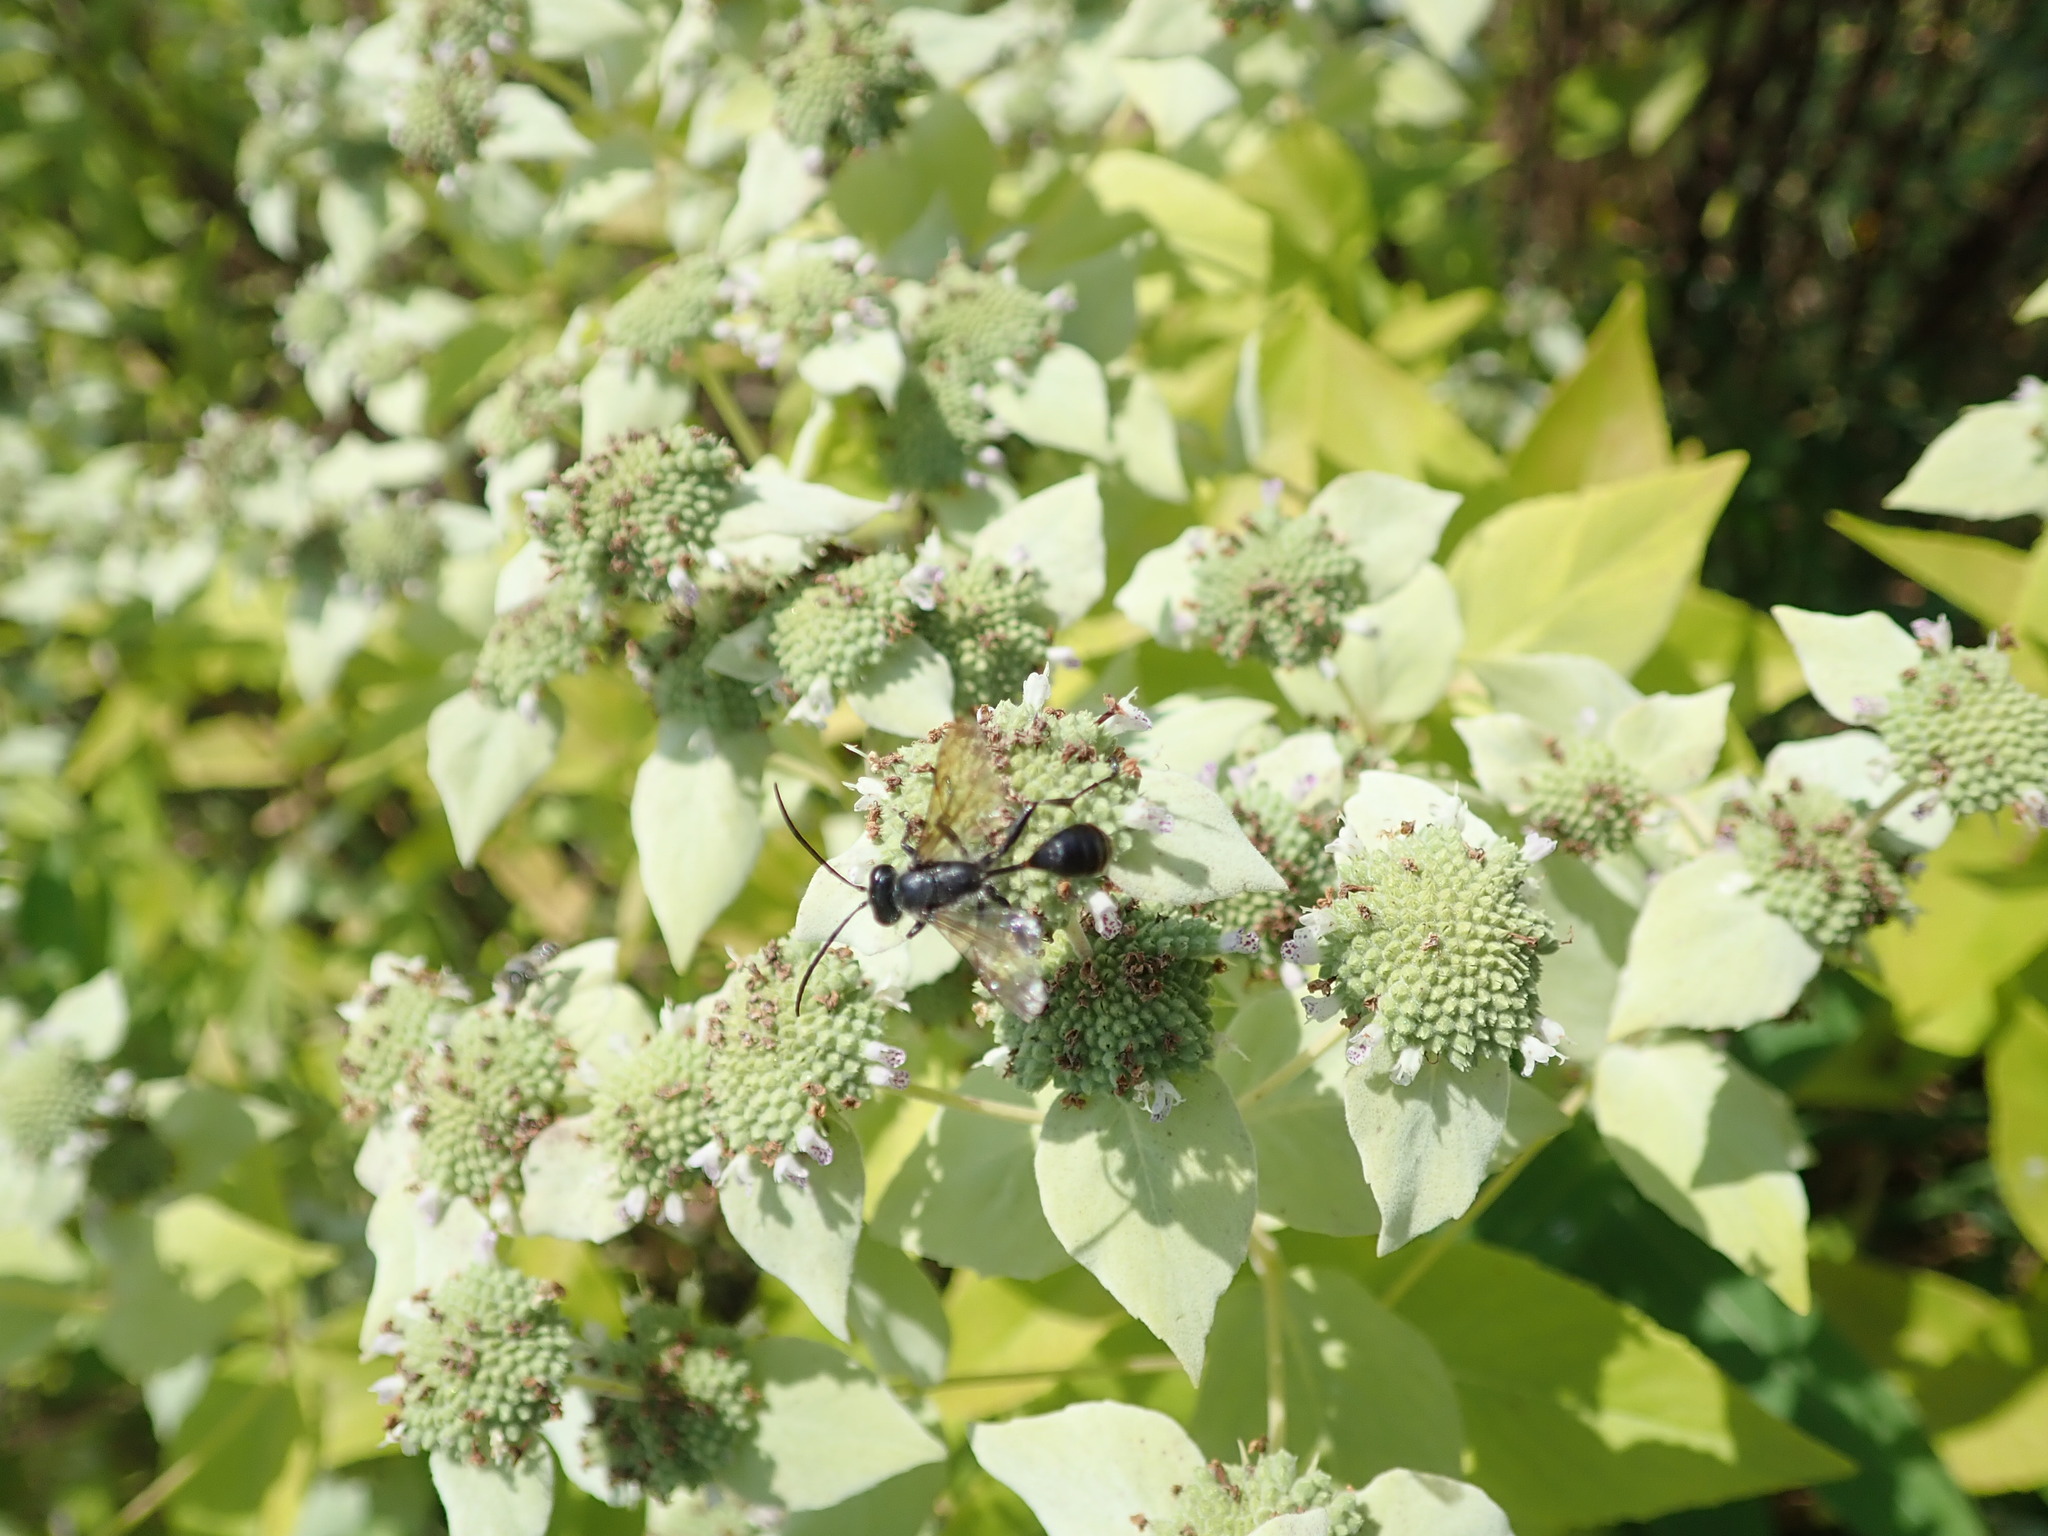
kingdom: Animalia
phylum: Arthropoda
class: Insecta
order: Hymenoptera
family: Sphecidae
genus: Isodontia
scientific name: Isodontia mexicana
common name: Mud dauber
